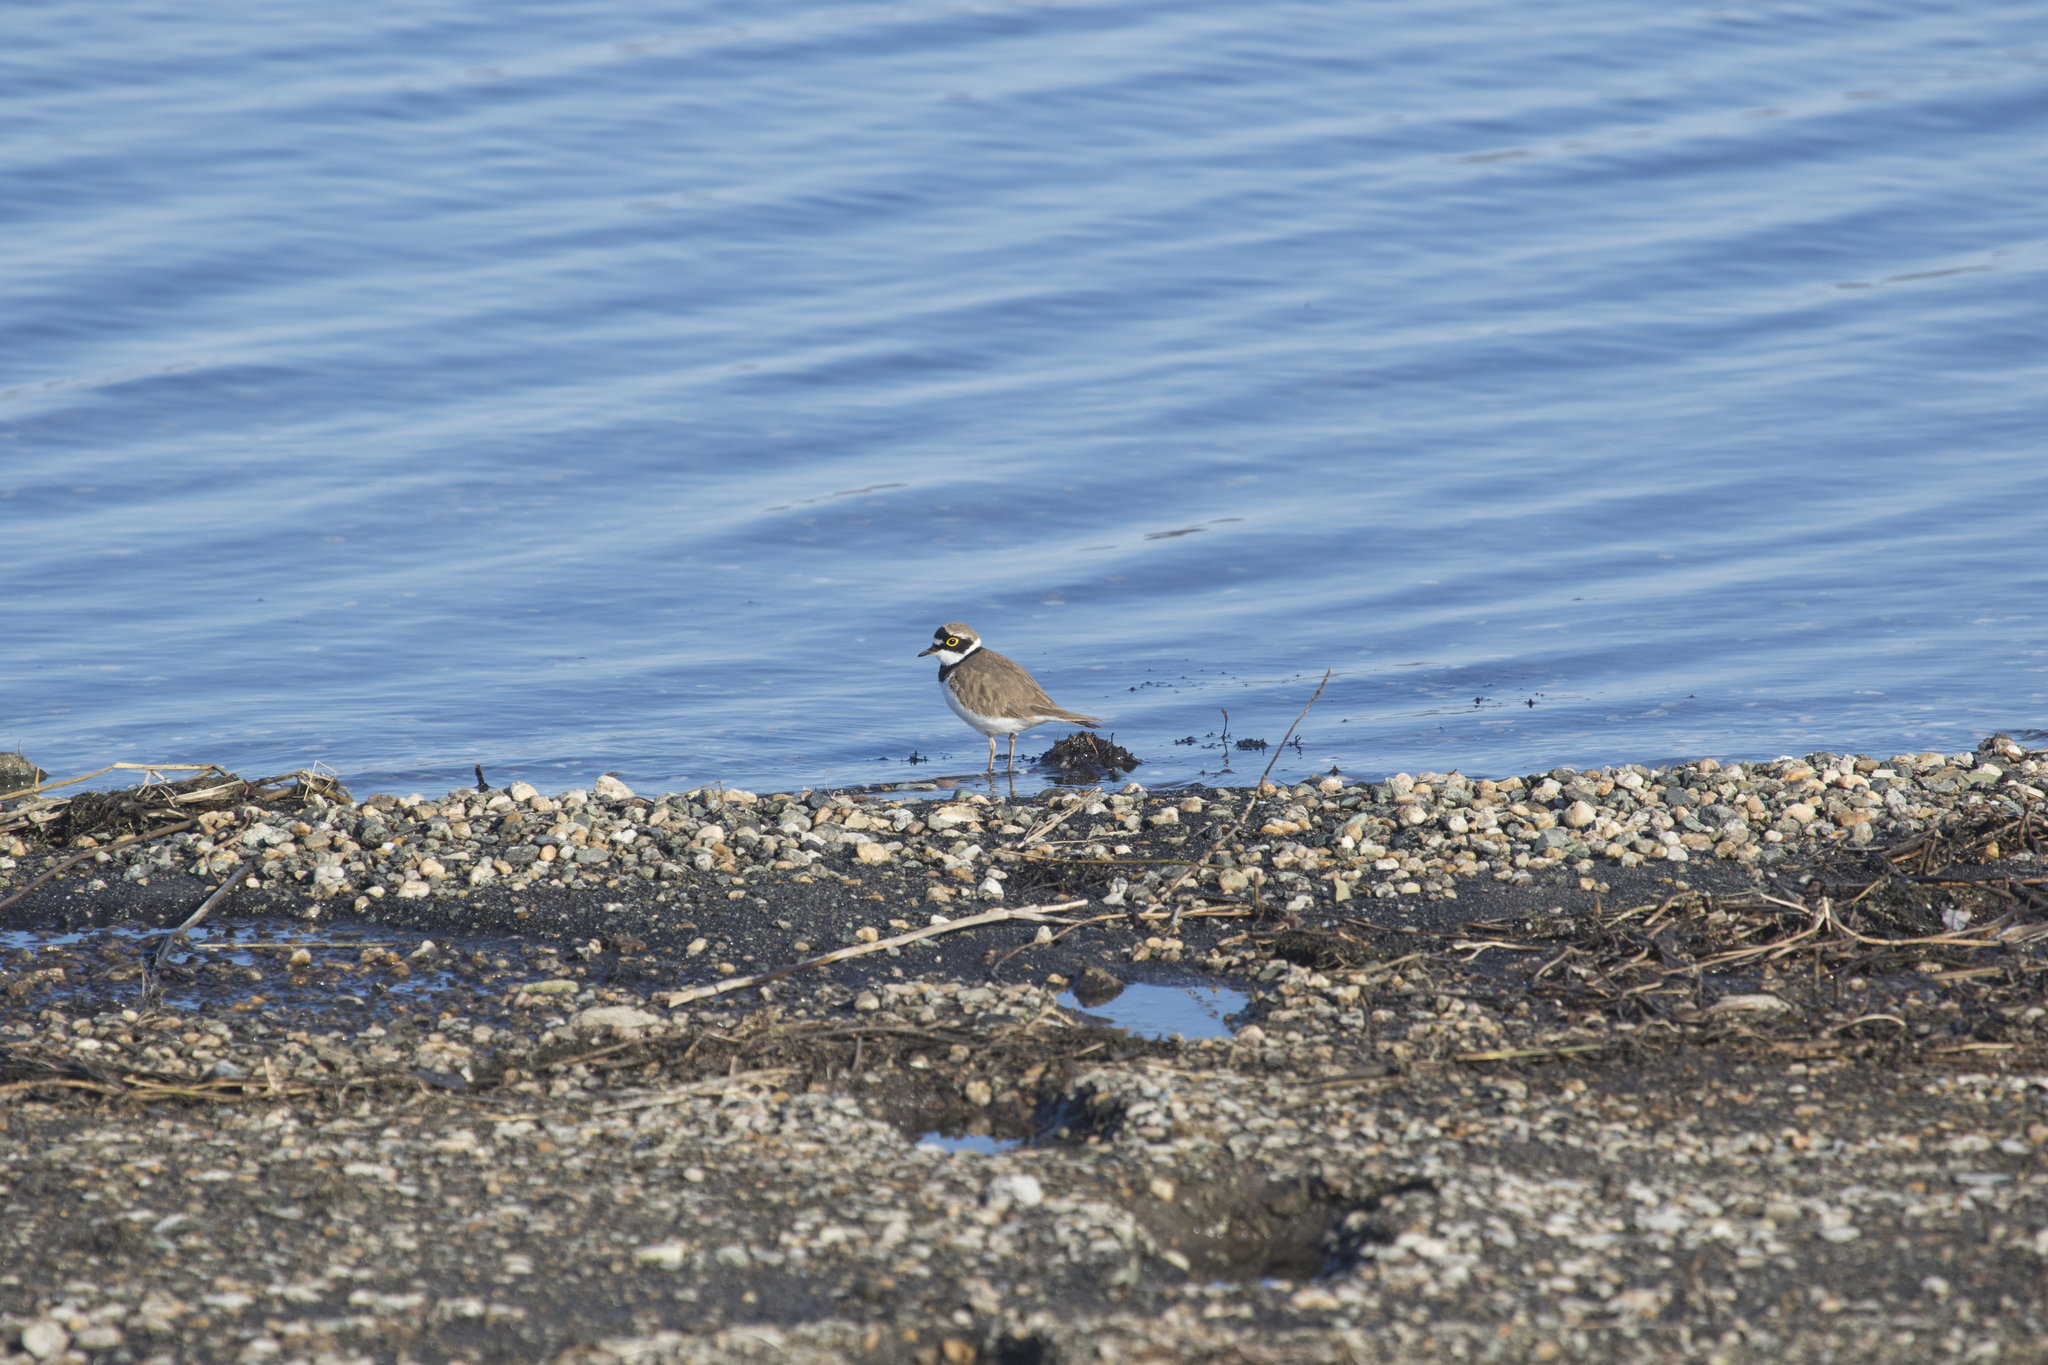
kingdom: Animalia
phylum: Chordata
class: Aves
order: Charadriiformes
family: Charadriidae
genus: Charadrius
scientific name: Charadrius dubius
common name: Little ringed plover
